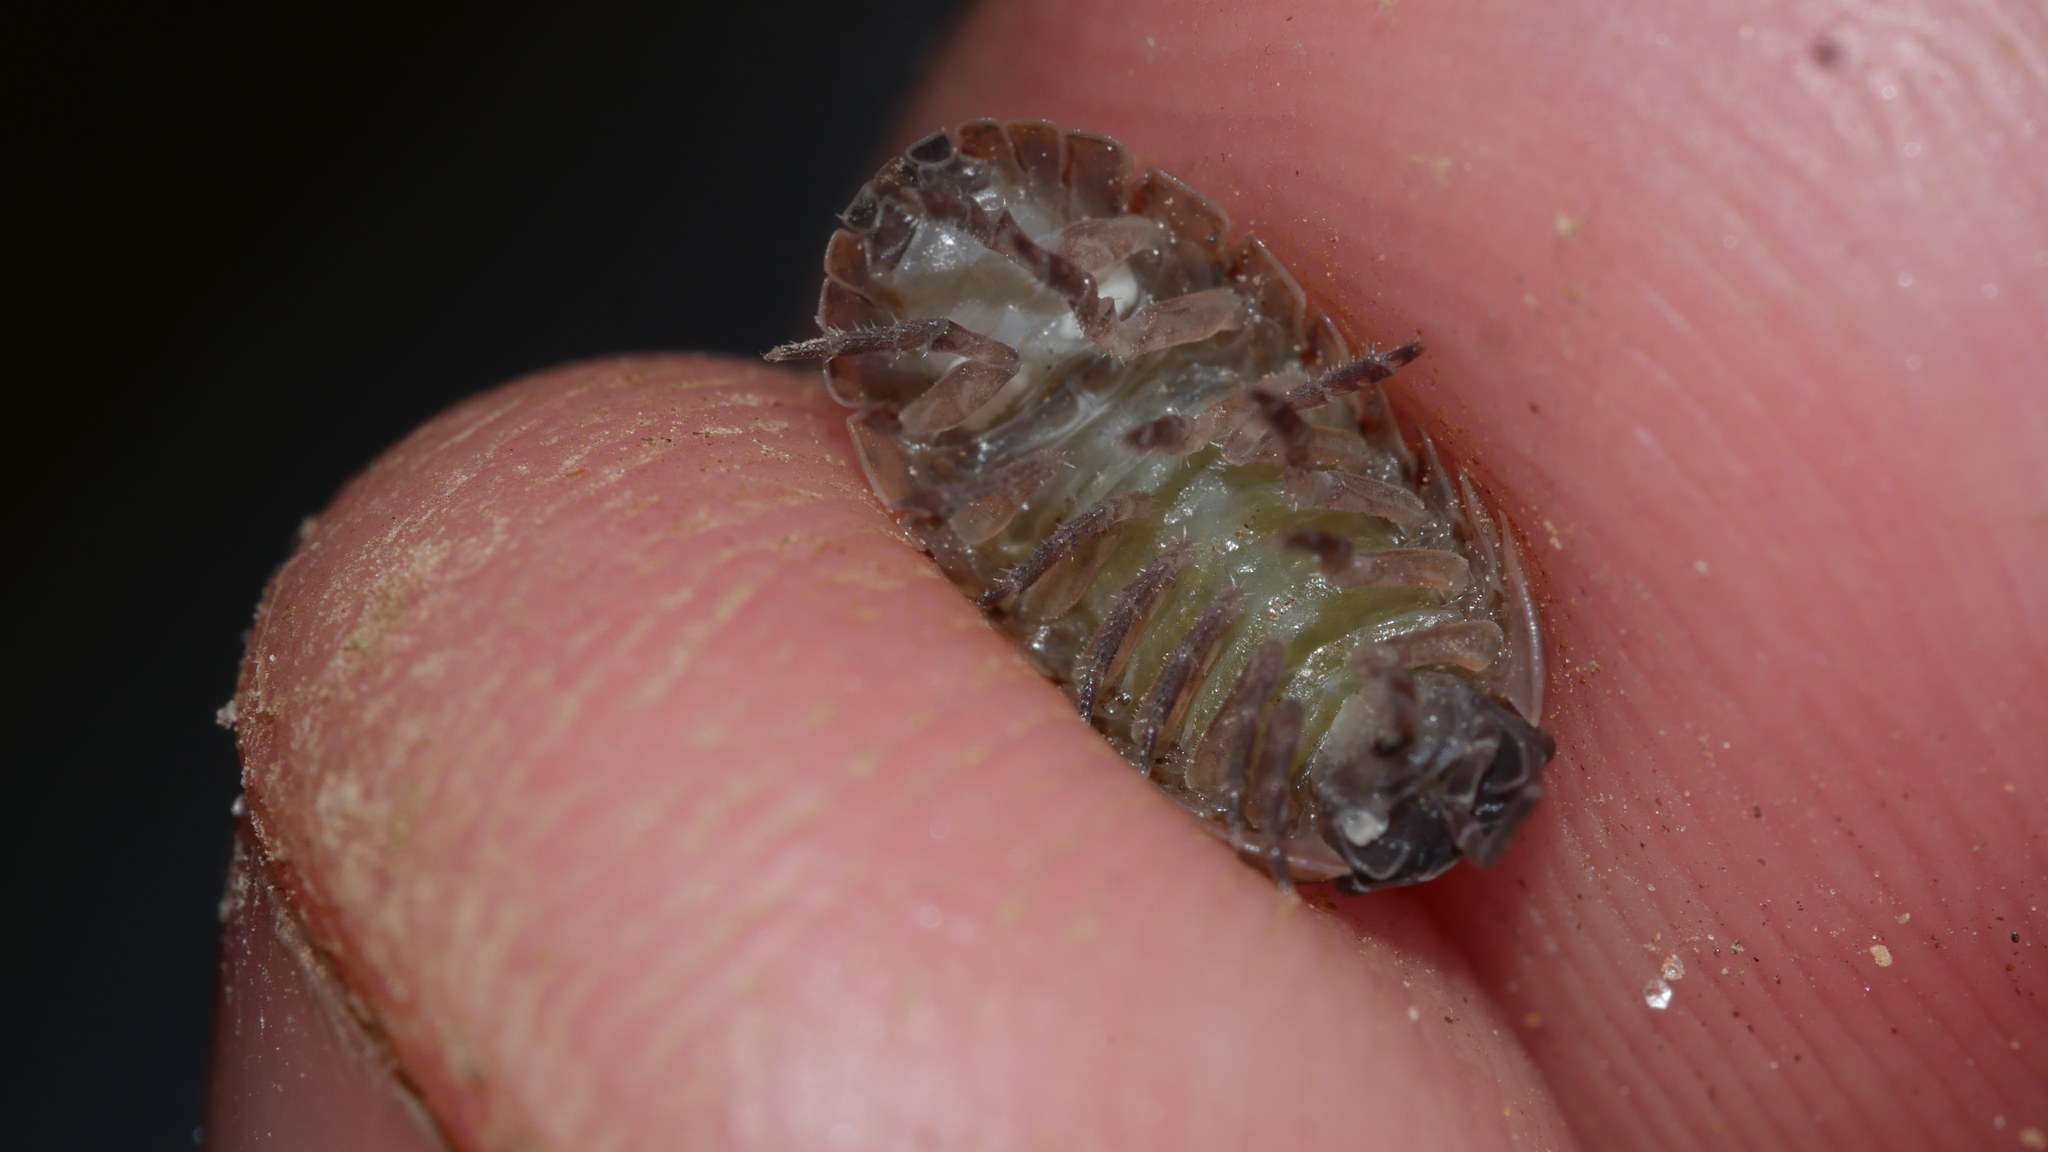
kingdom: Animalia
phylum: Arthropoda
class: Malacostraca
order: Isopoda
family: Armadillidiidae
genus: Armadillidium
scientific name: Armadillidium vulgare
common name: Common pill woodlouse
